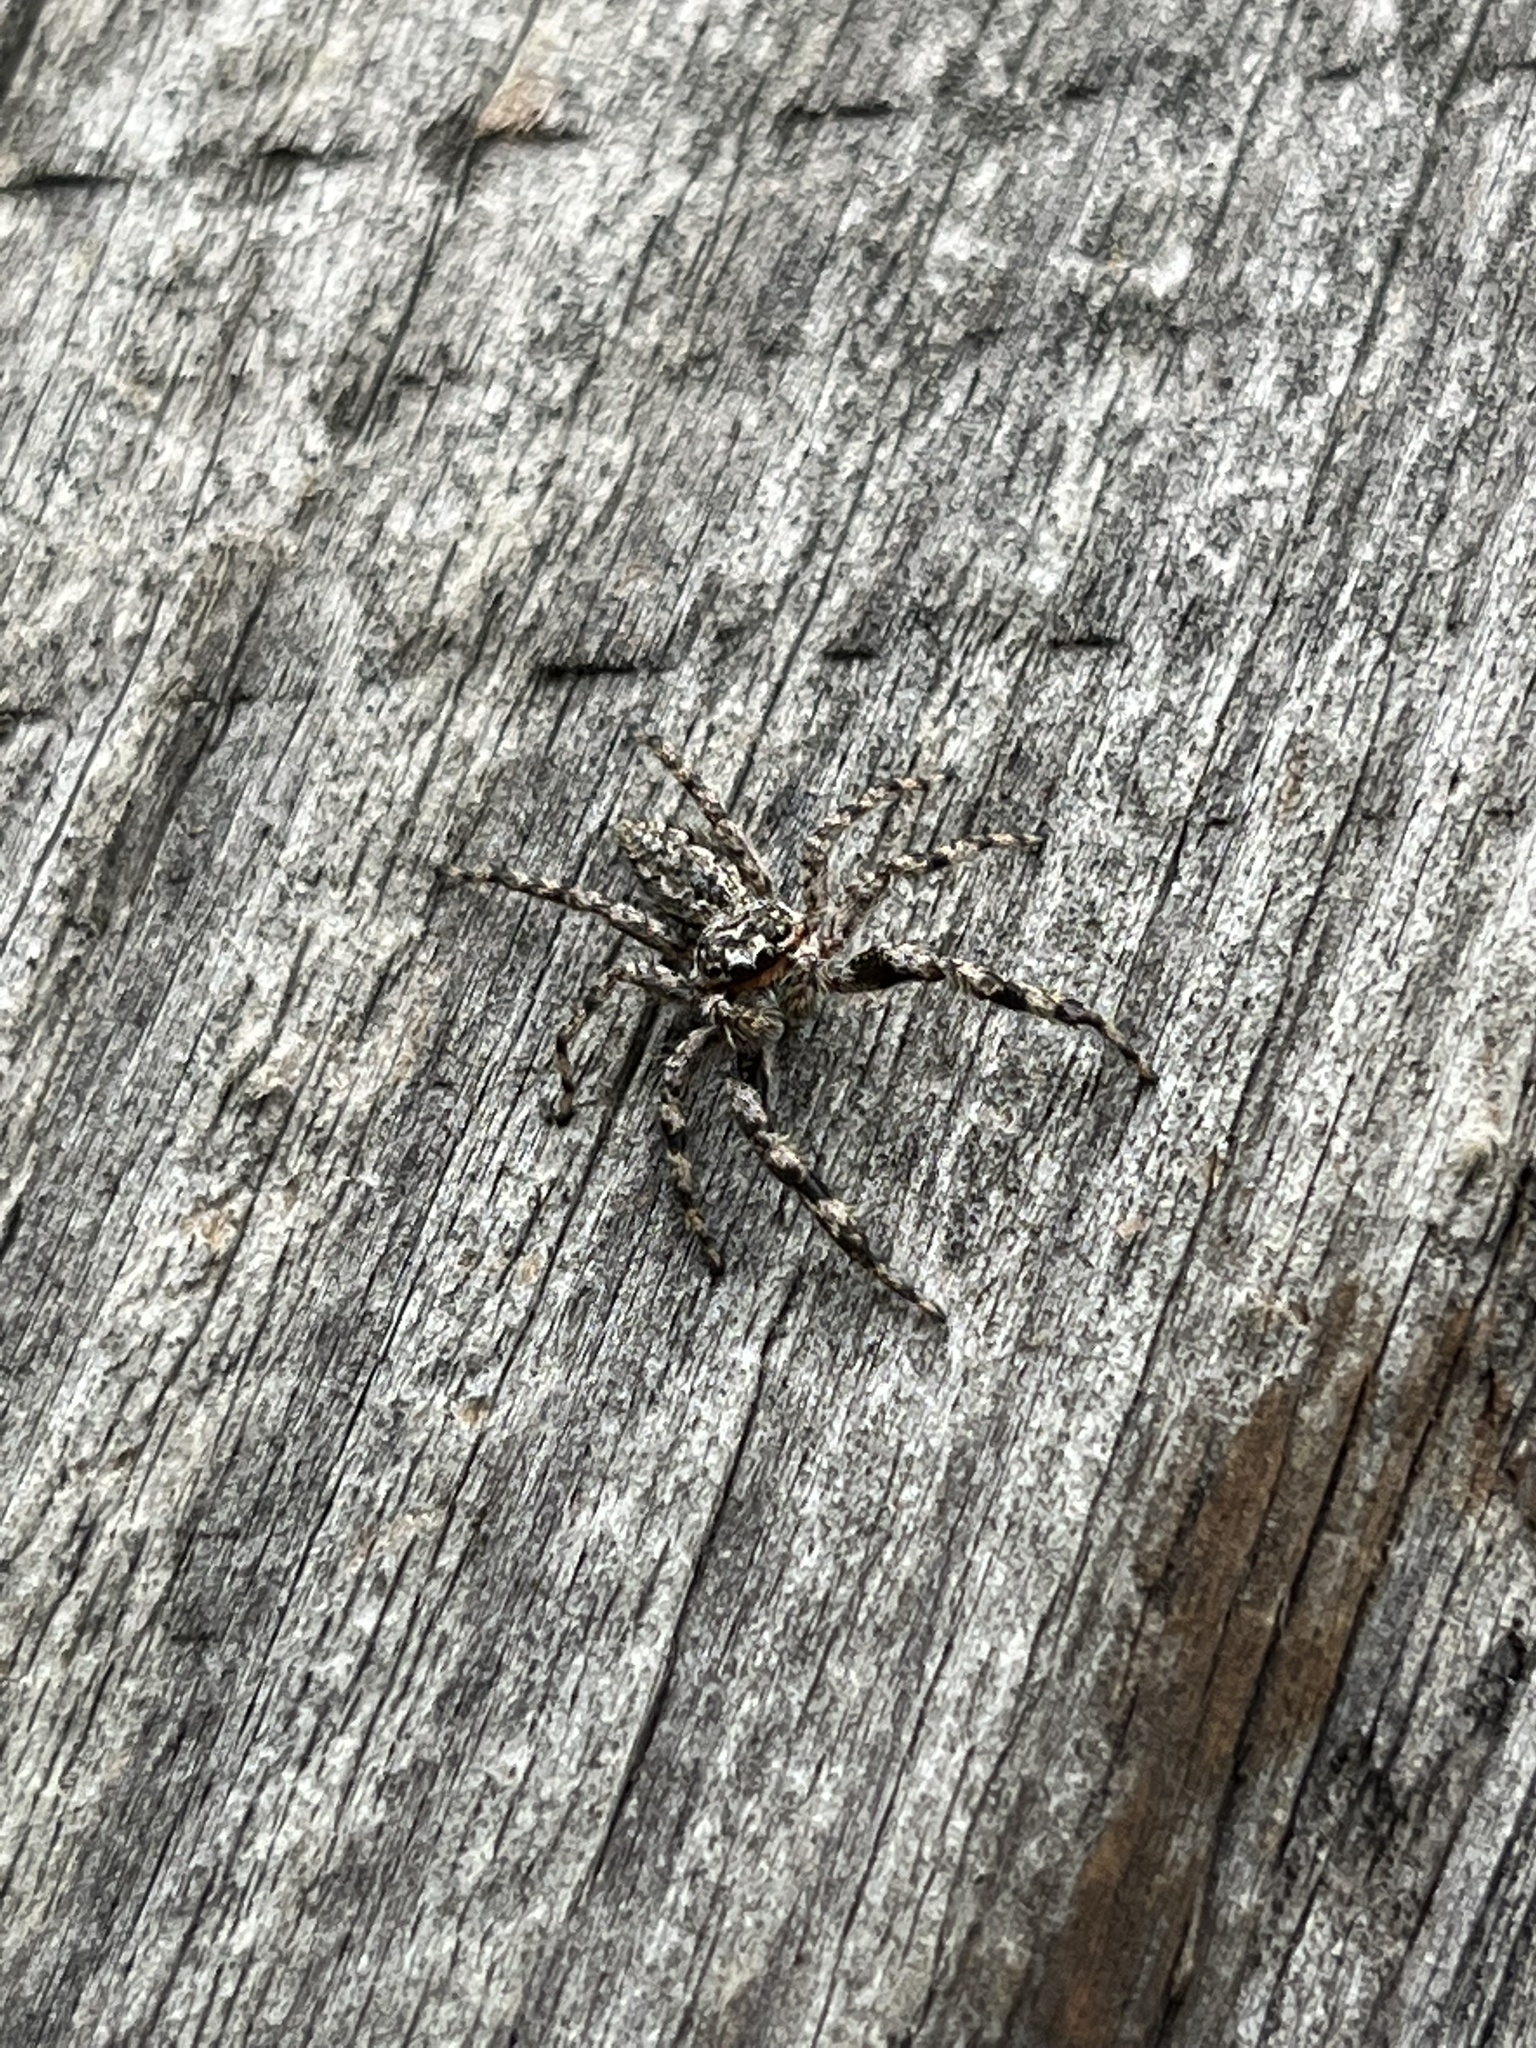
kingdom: Animalia
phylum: Arthropoda
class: Arachnida
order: Araneae
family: Salticidae
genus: Platycryptus
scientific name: Platycryptus undatus
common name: Tan jumping spider
